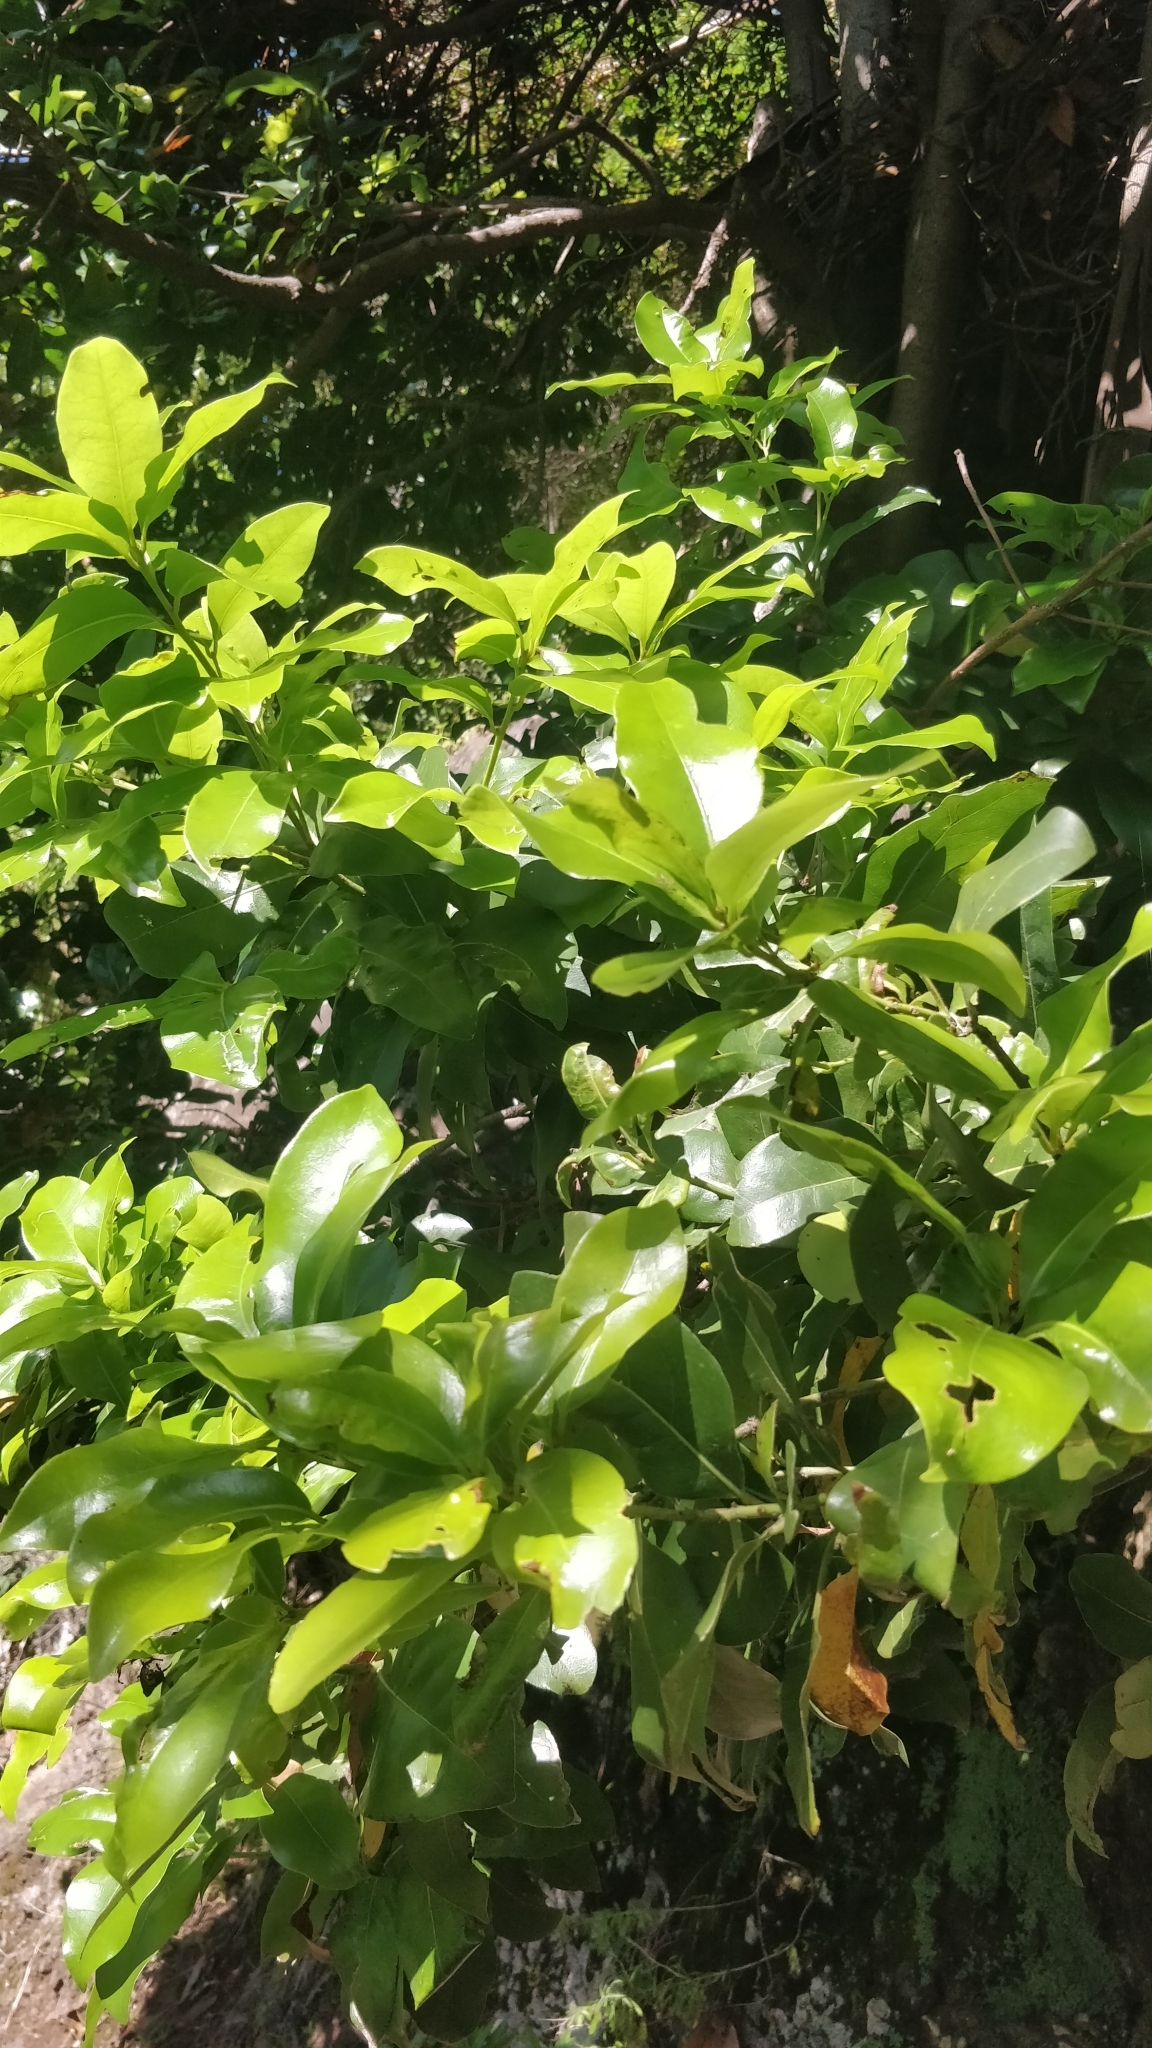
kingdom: Plantae
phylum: Tracheophyta
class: Magnoliopsida
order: Laurales
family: Lauraceae
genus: Apollonias
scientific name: Apollonias barbujana
